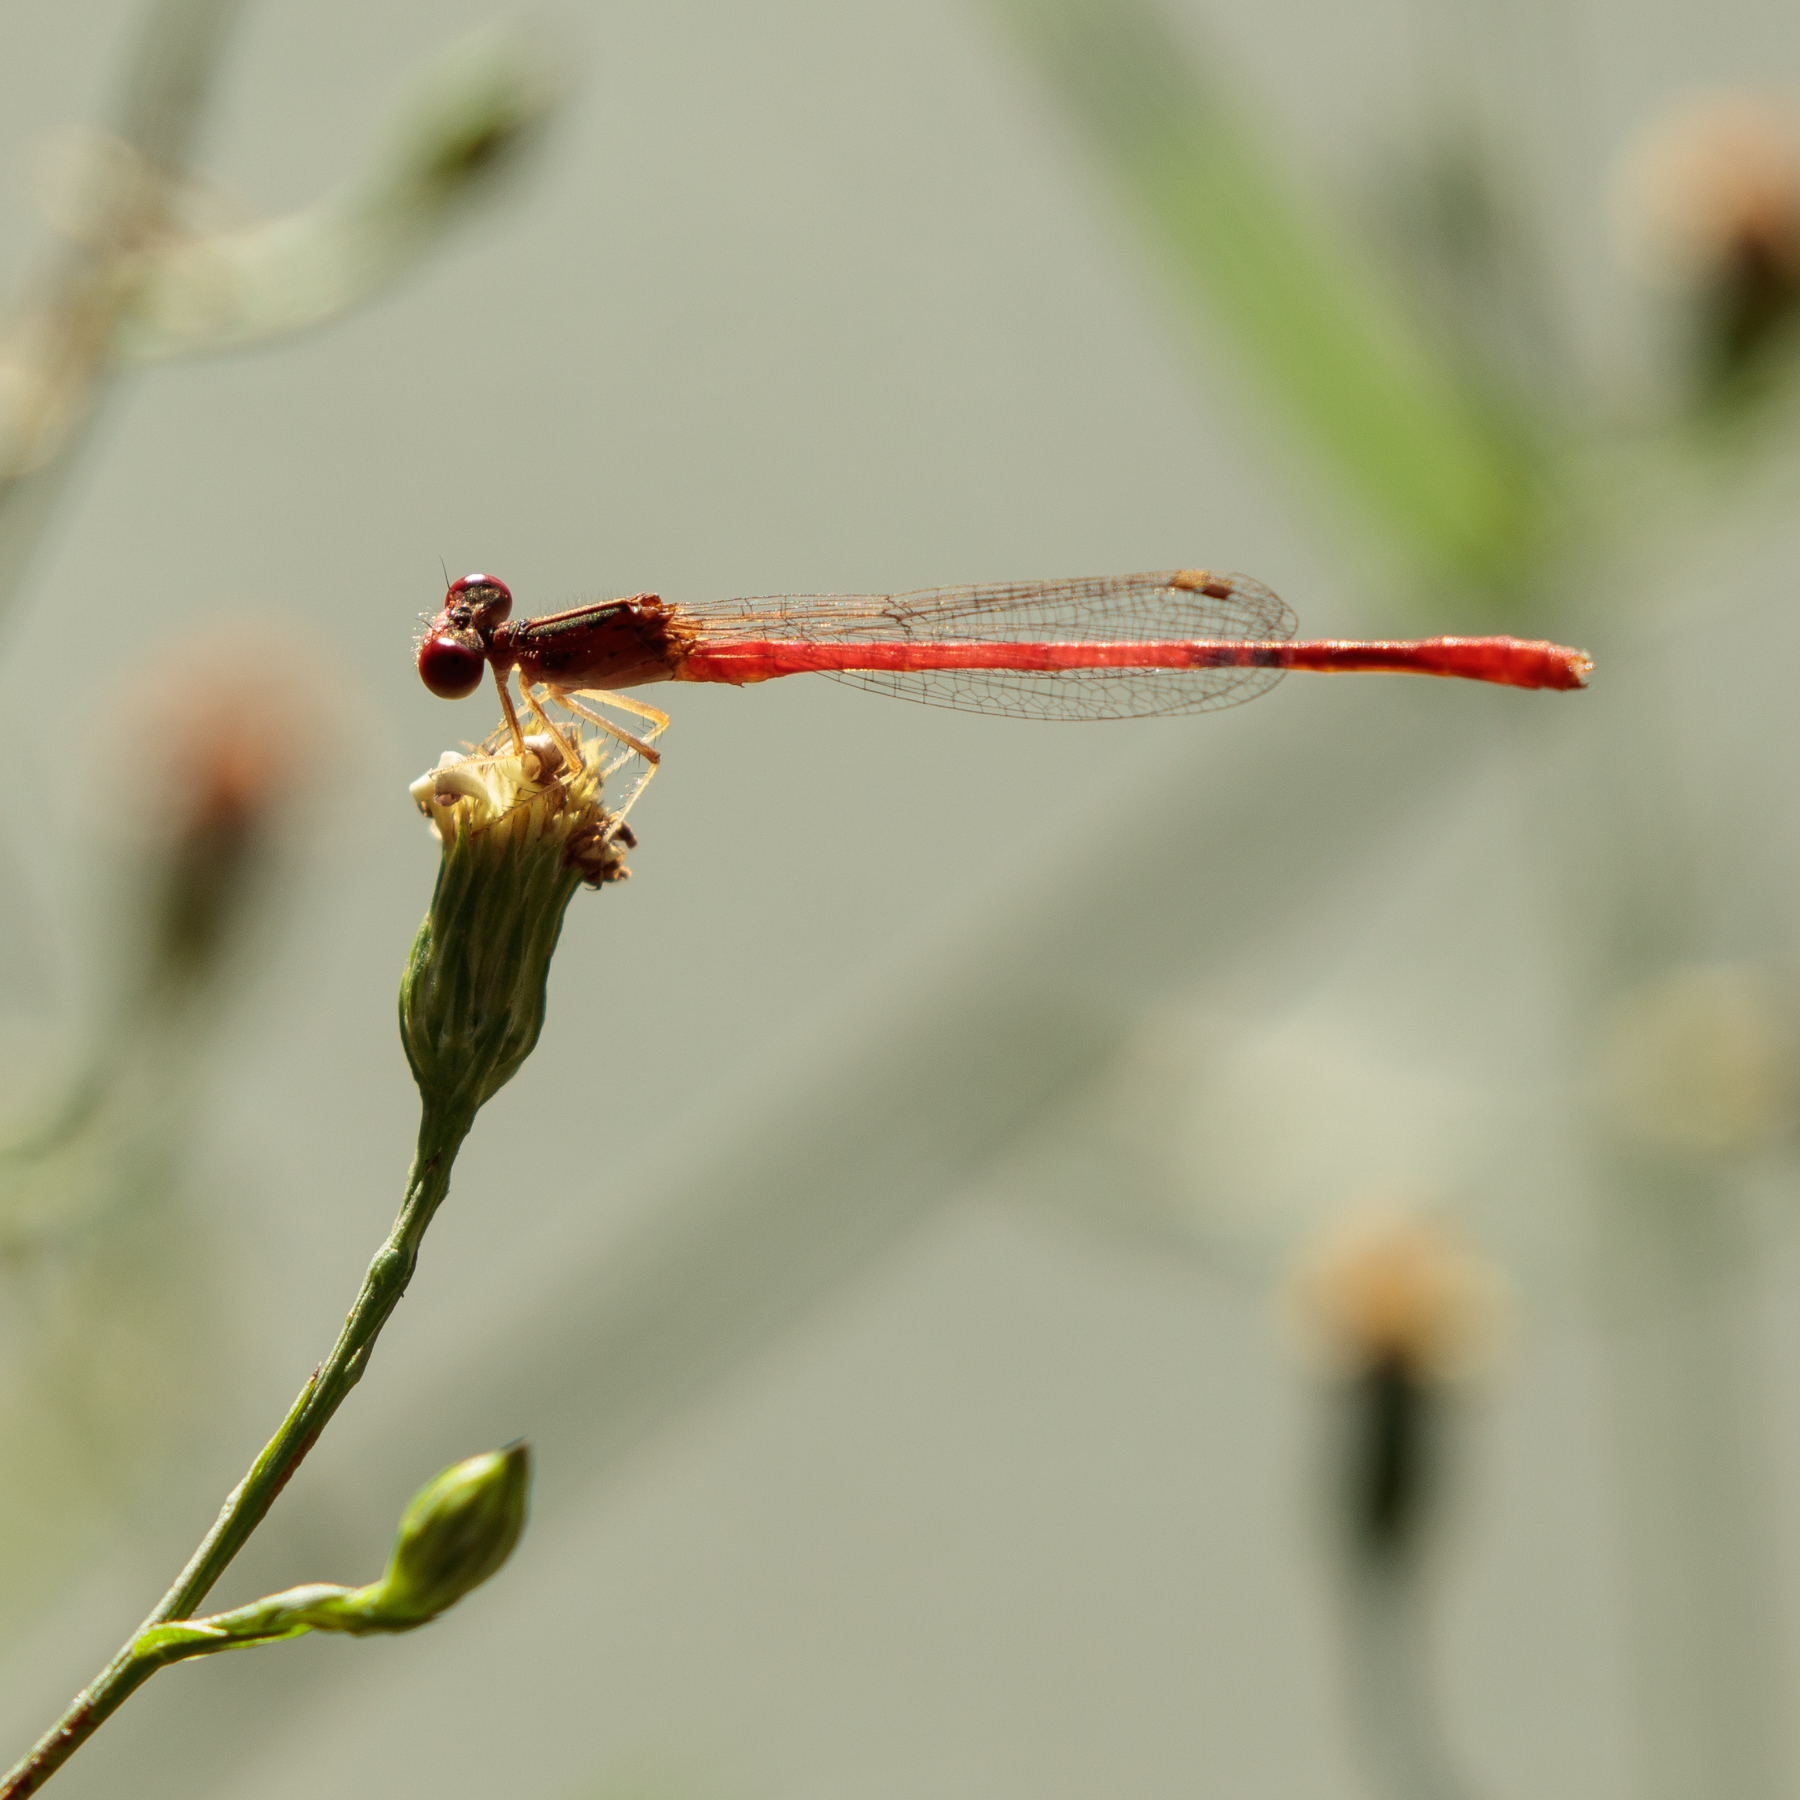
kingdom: Animalia
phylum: Arthropoda
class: Insecta
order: Odonata
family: Coenagrionidae
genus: Telebasis
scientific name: Telebasis salva
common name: Desert firetail
